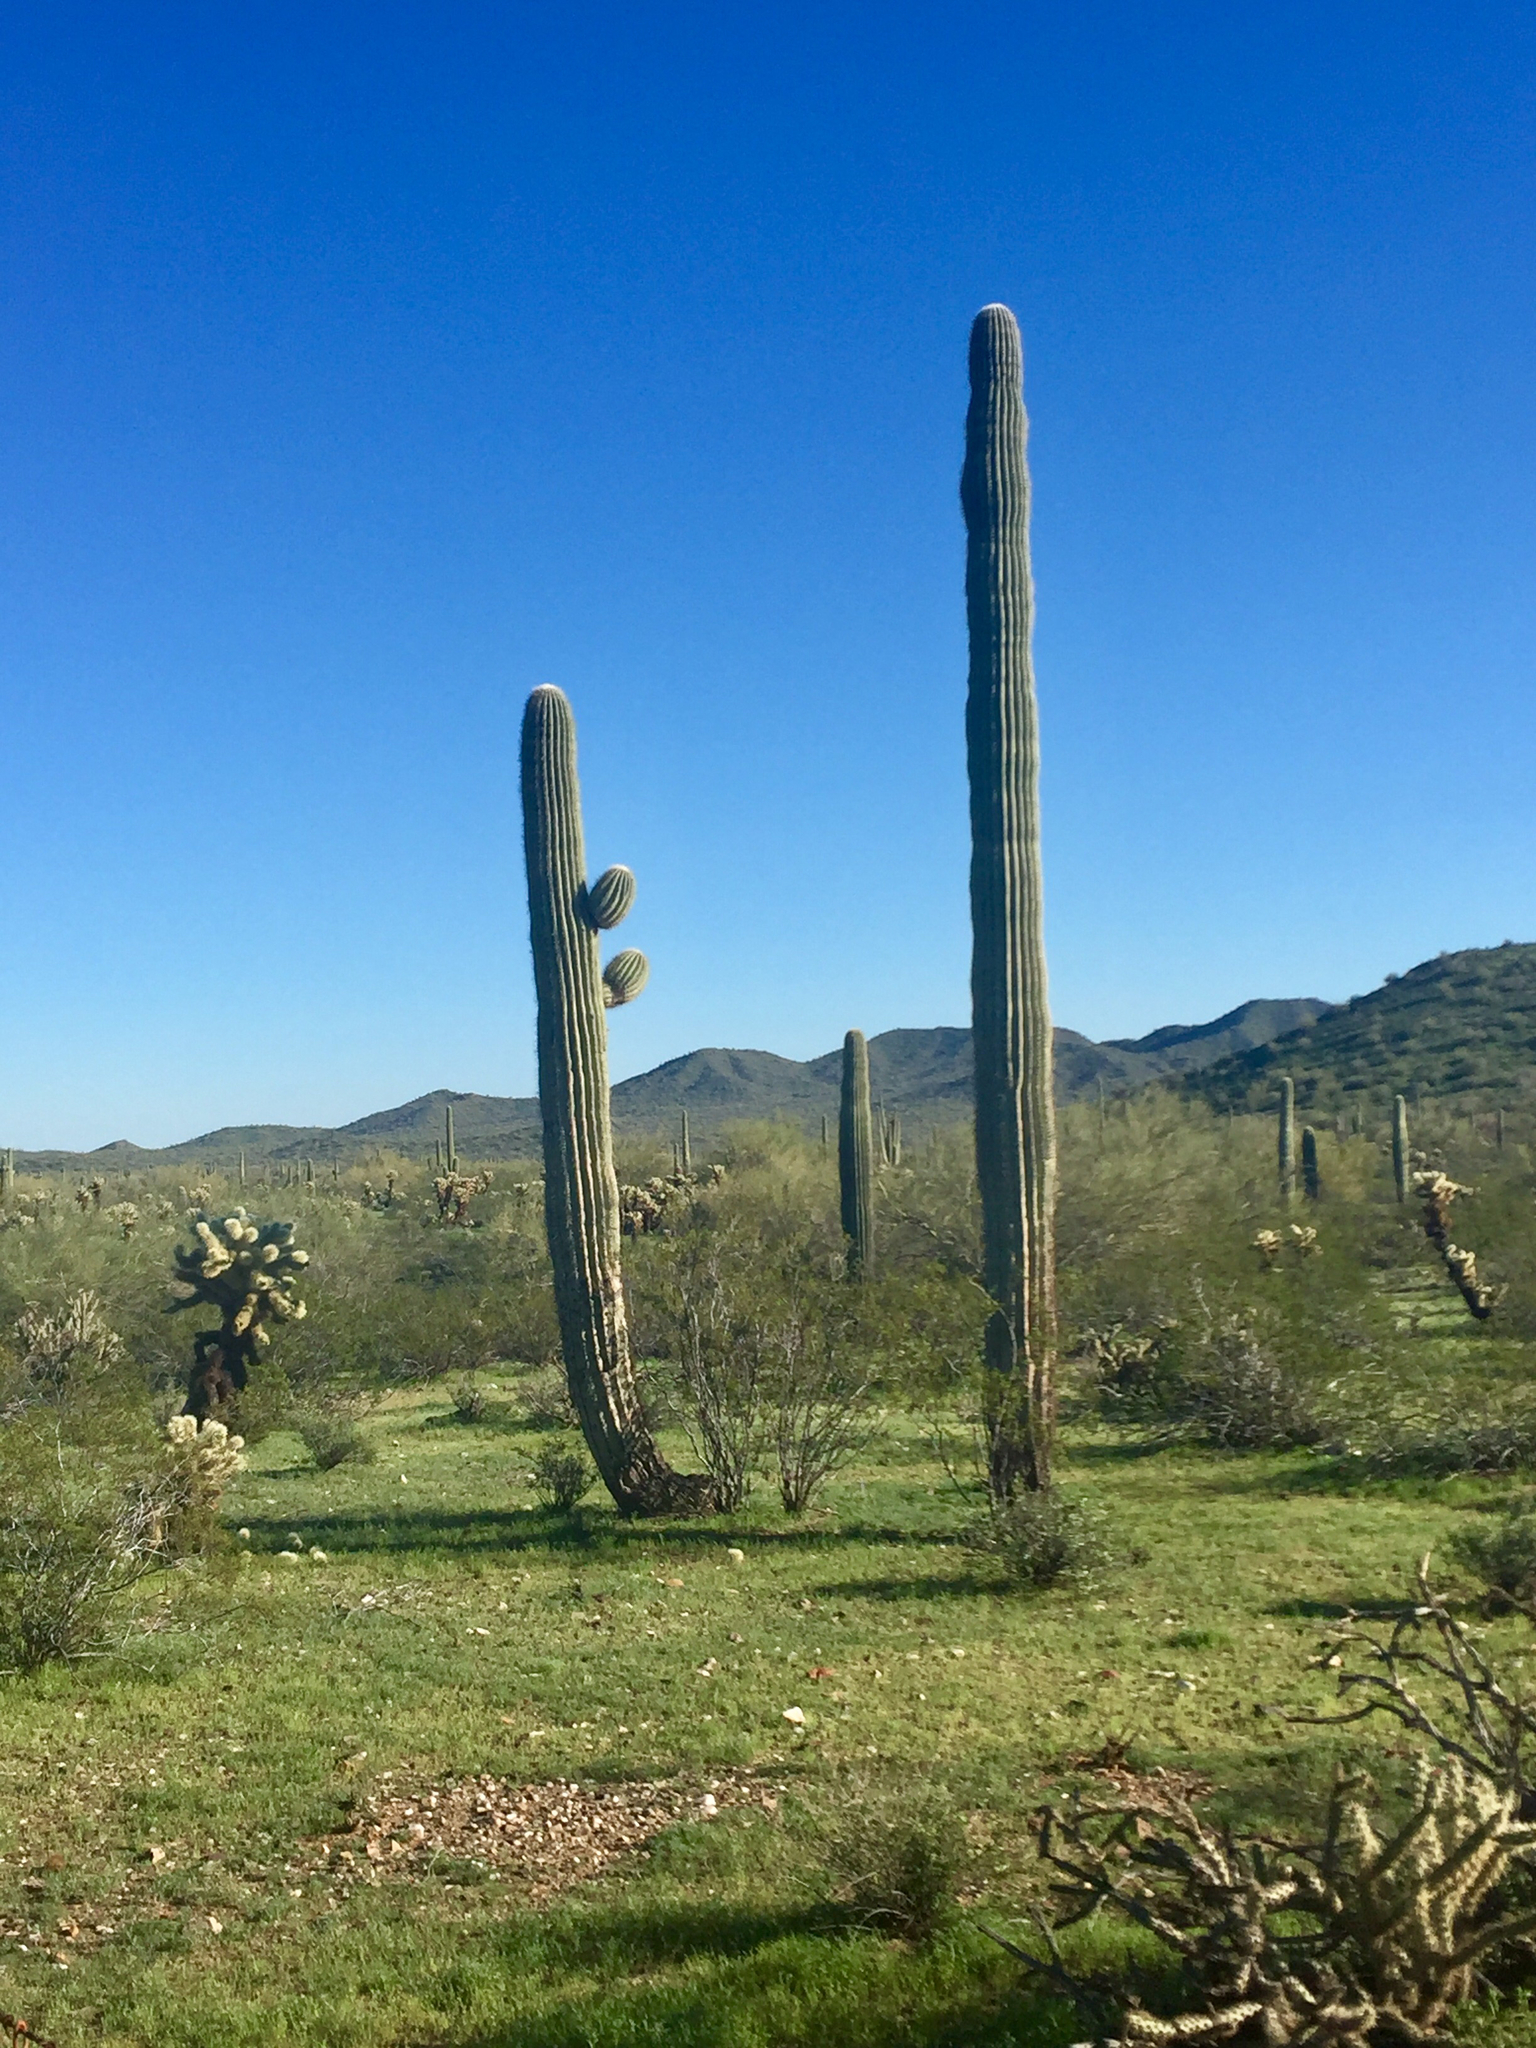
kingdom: Plantae
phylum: Tracheophyta
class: Magnoliopsida
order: Caryophyllales
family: Cactaceae
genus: Carnegiea
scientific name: Carnegiea gigantea
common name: Saguaro
